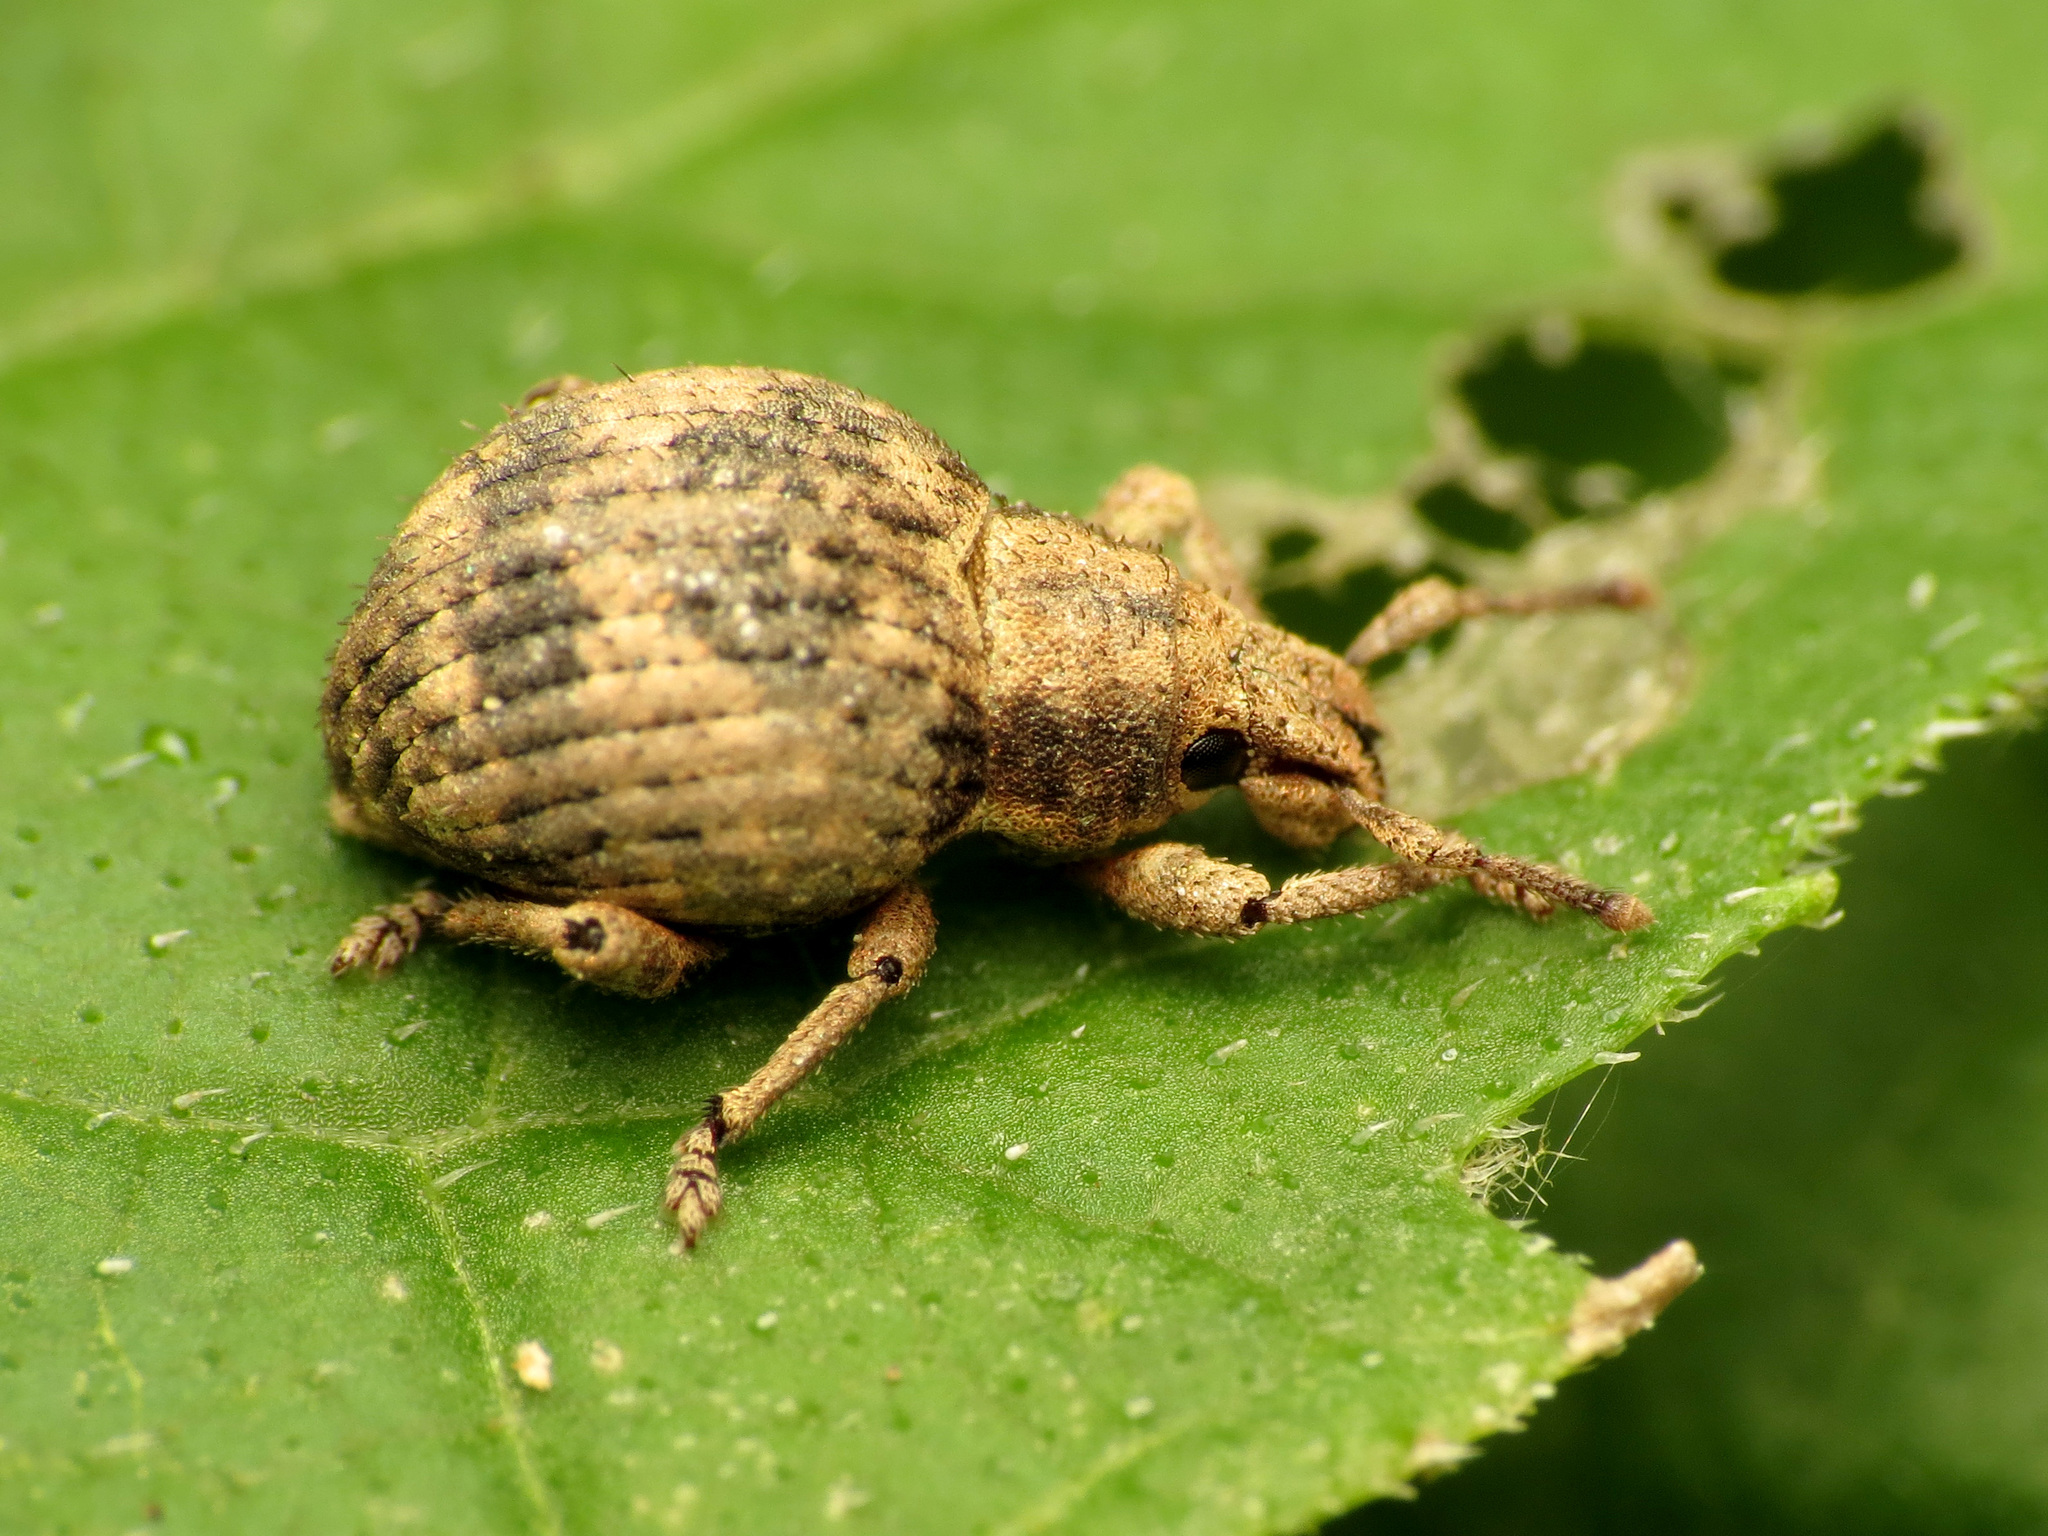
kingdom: Animalia
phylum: Arthropoda
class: Insecta
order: Coleoptera
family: Curculionidae
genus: Pseudocneorhinus
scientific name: Pseudocneorhinus bifasciatus
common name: Two-banded japanese weevil
